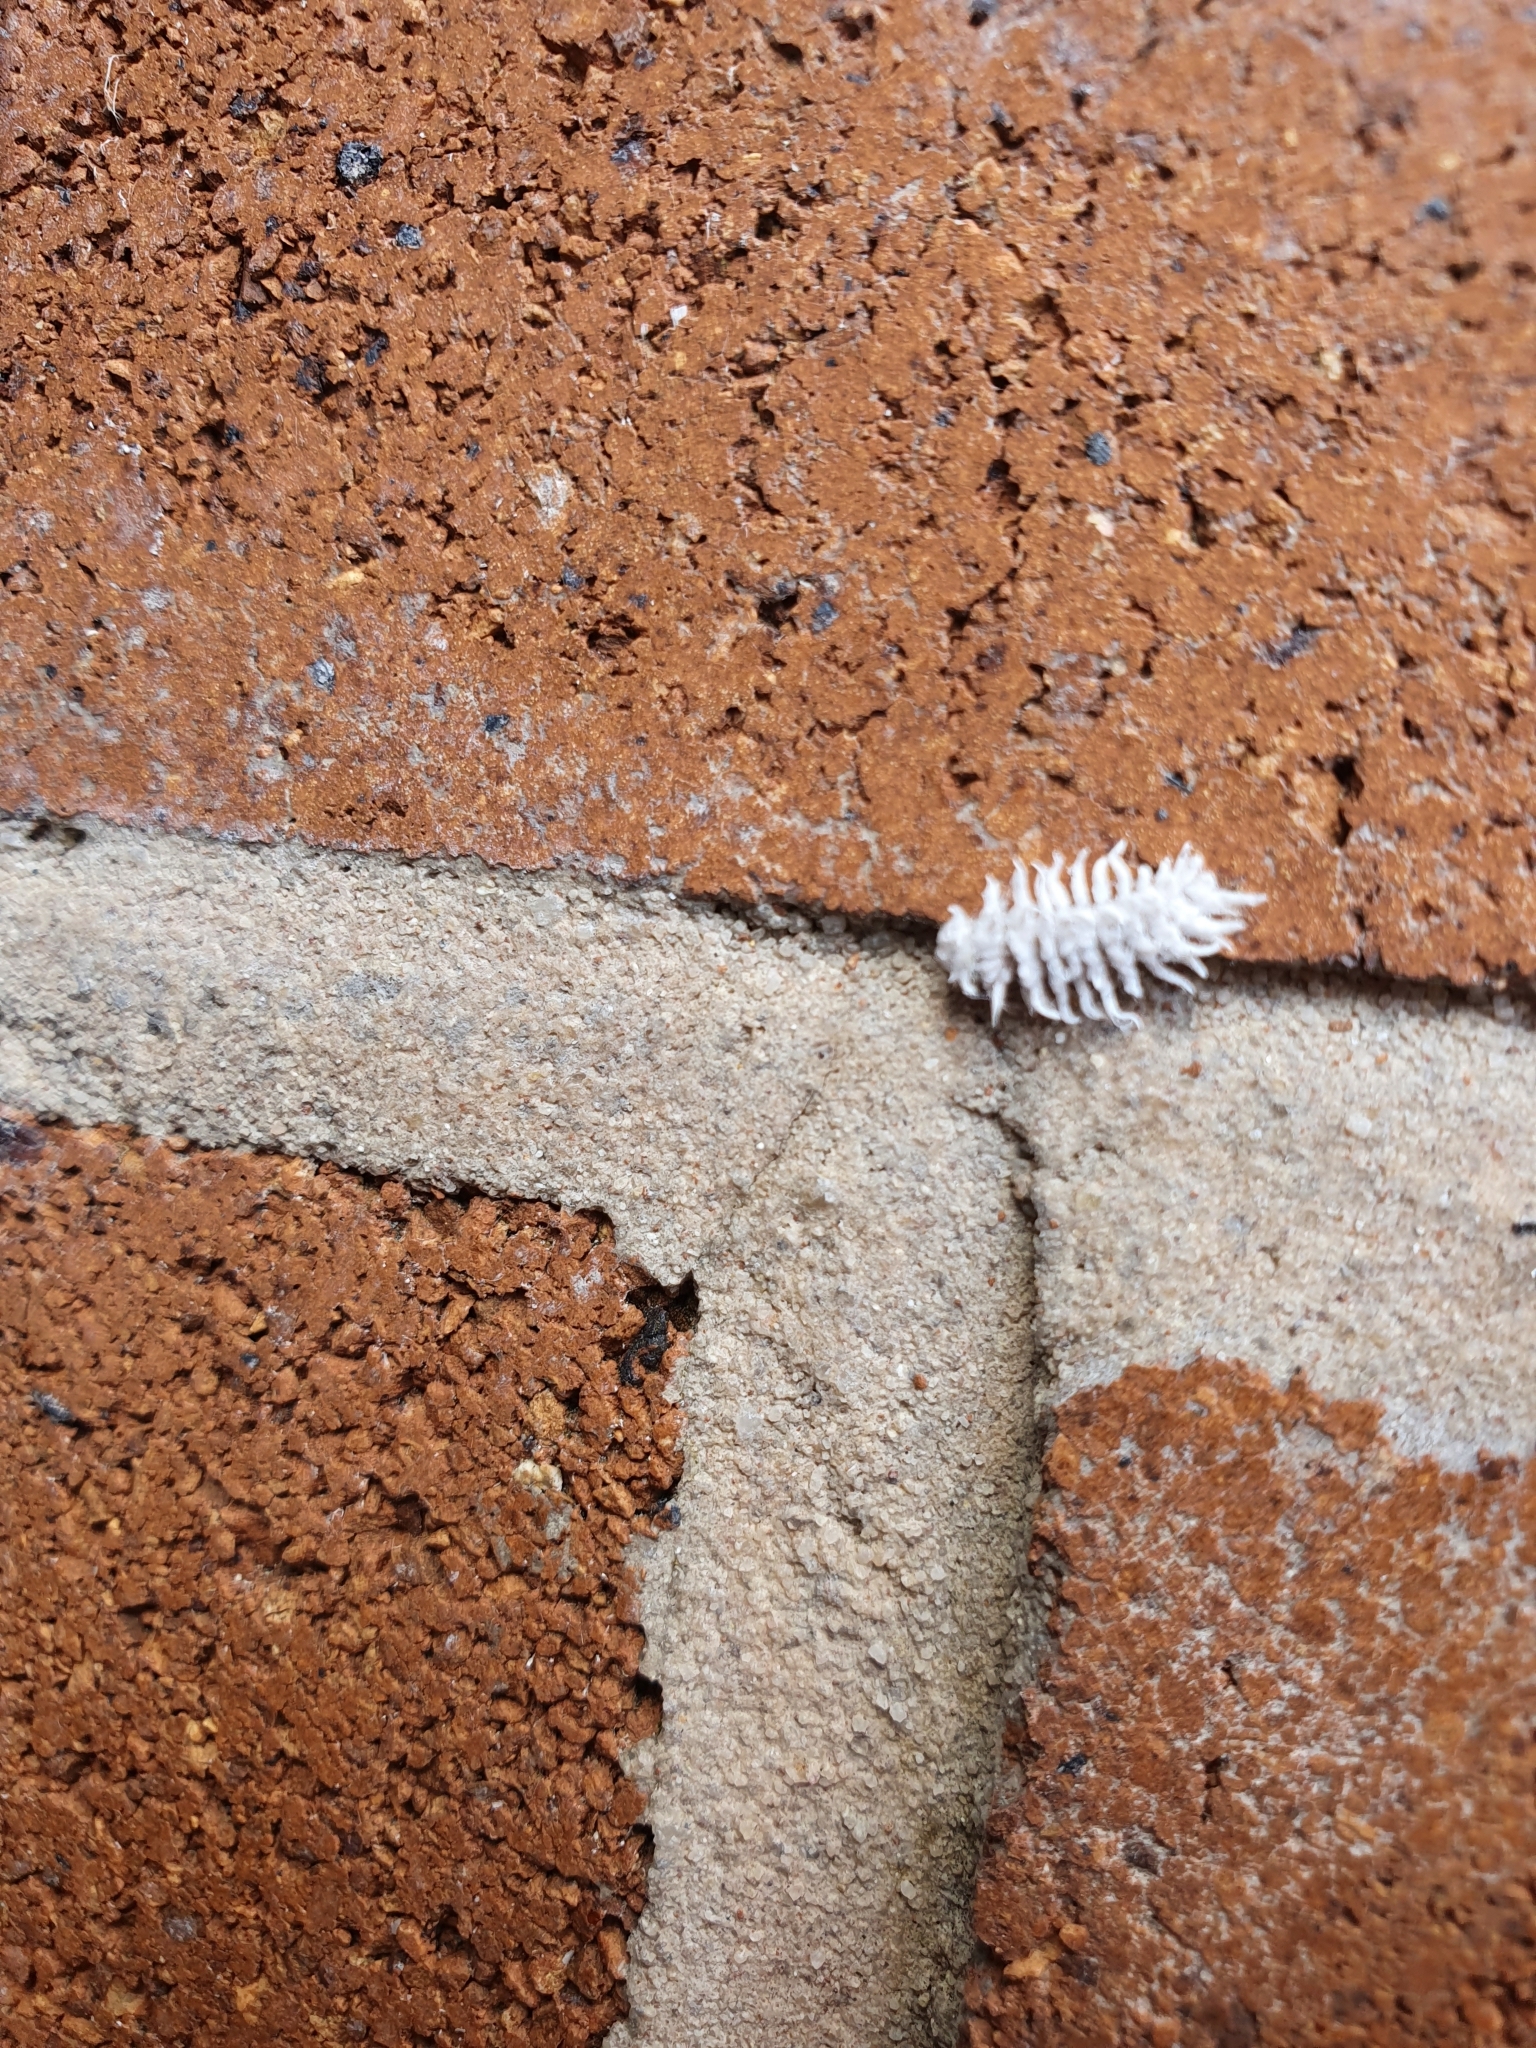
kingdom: Animalia
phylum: Arthropoda
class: Insecta
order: Coleoptera
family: Coccinellidae
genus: Cryptolaemus
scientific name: Cryptolaemus montrouzieri
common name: Mealybug destroyer
